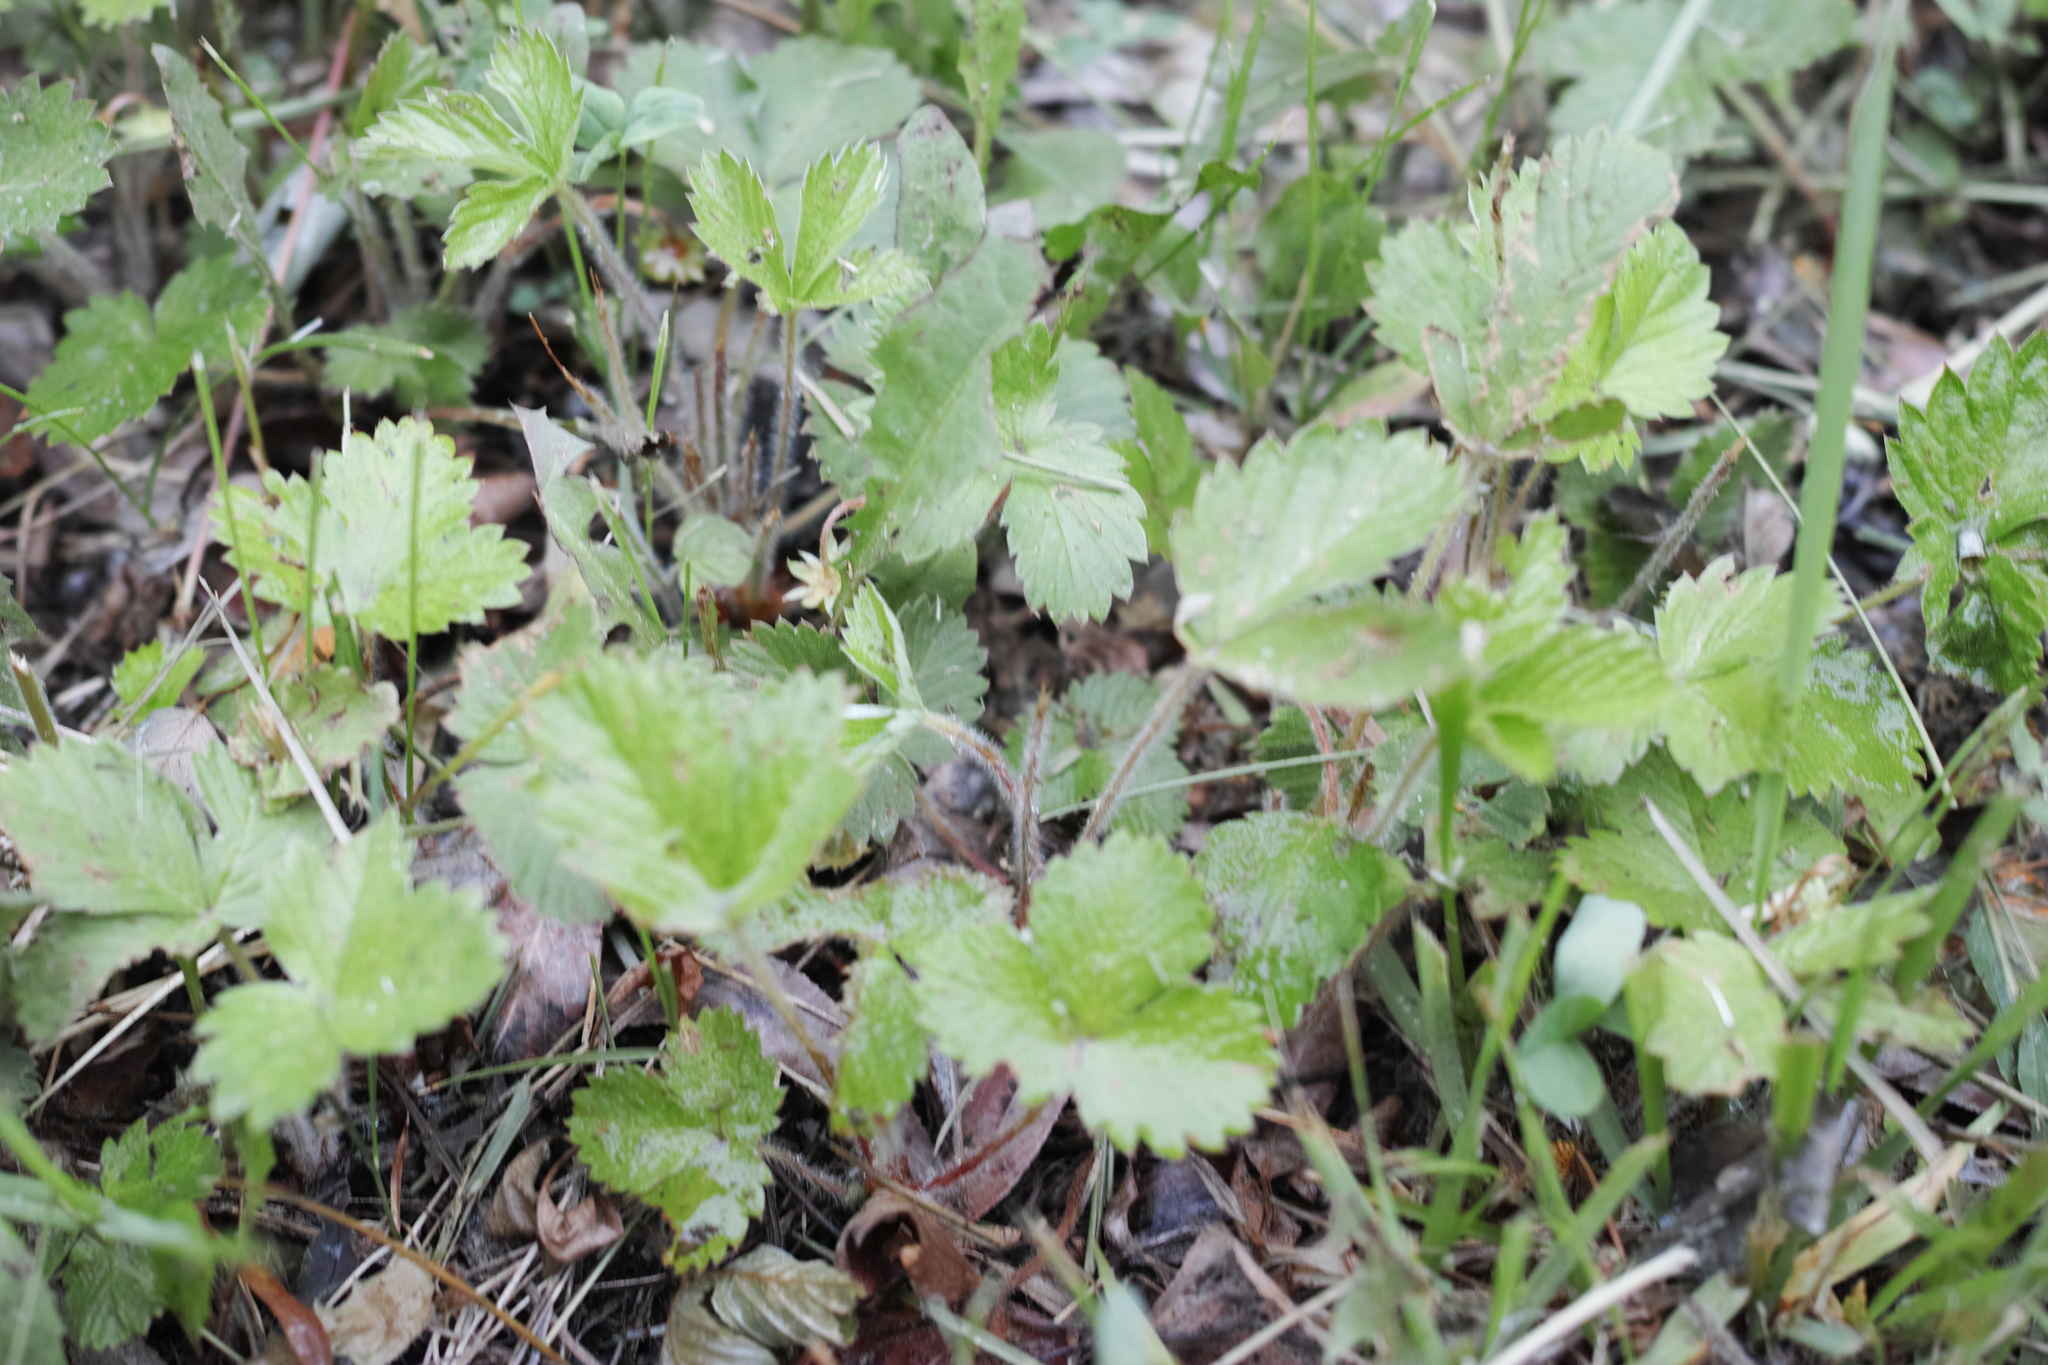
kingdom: Plantae
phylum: Tracheophyta
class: Magnoliopsida
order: Rosales
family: Rosaceae
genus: Fragaria
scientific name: Fragaria vesca
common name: Wild strawberry
